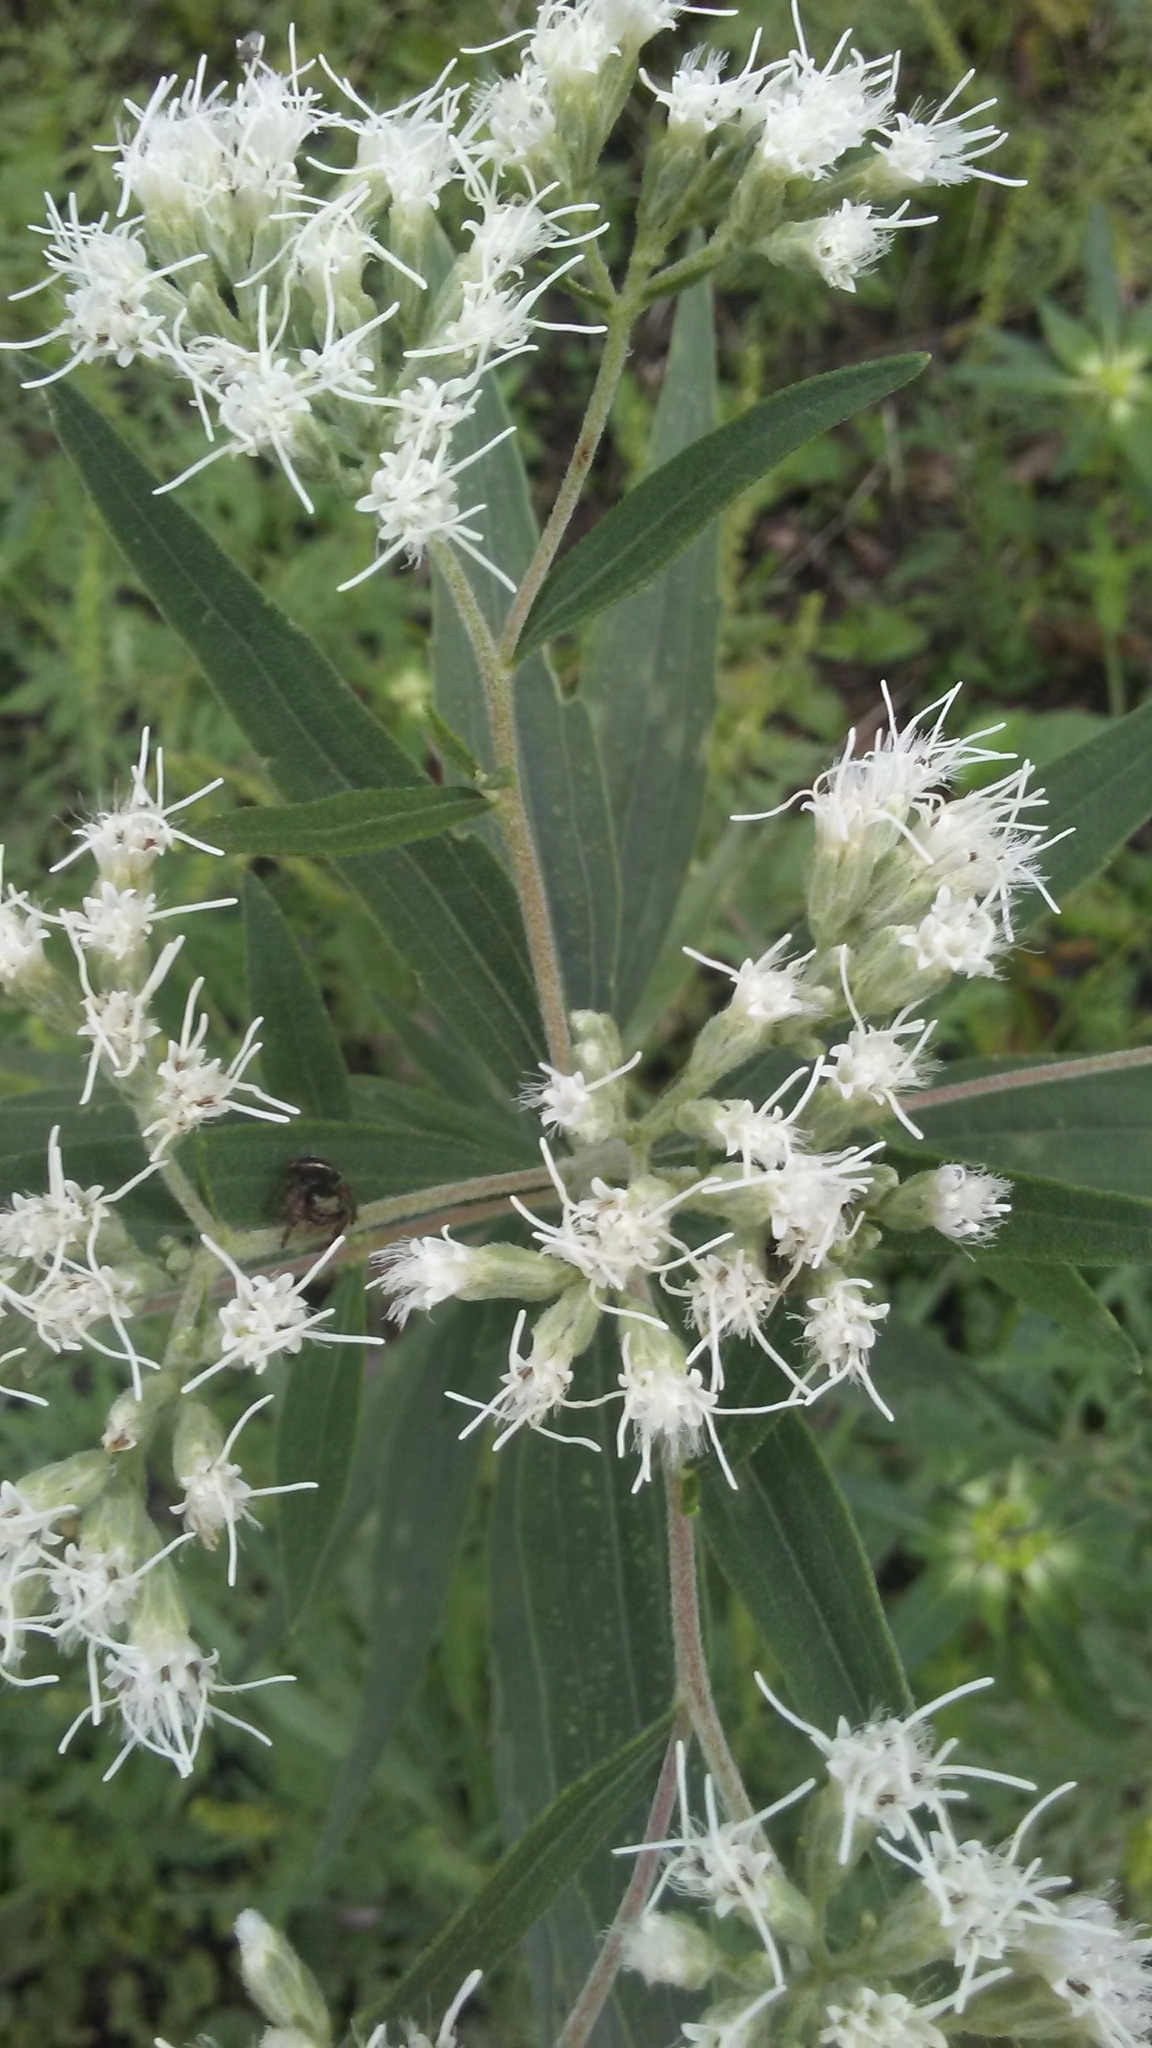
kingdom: Plantae
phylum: Tracheophyta
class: Magnoliopsida
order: Asterales
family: Asteraceae
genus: Eupatorium
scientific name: Eupatorium altissimum
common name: Tall thoroughwort
